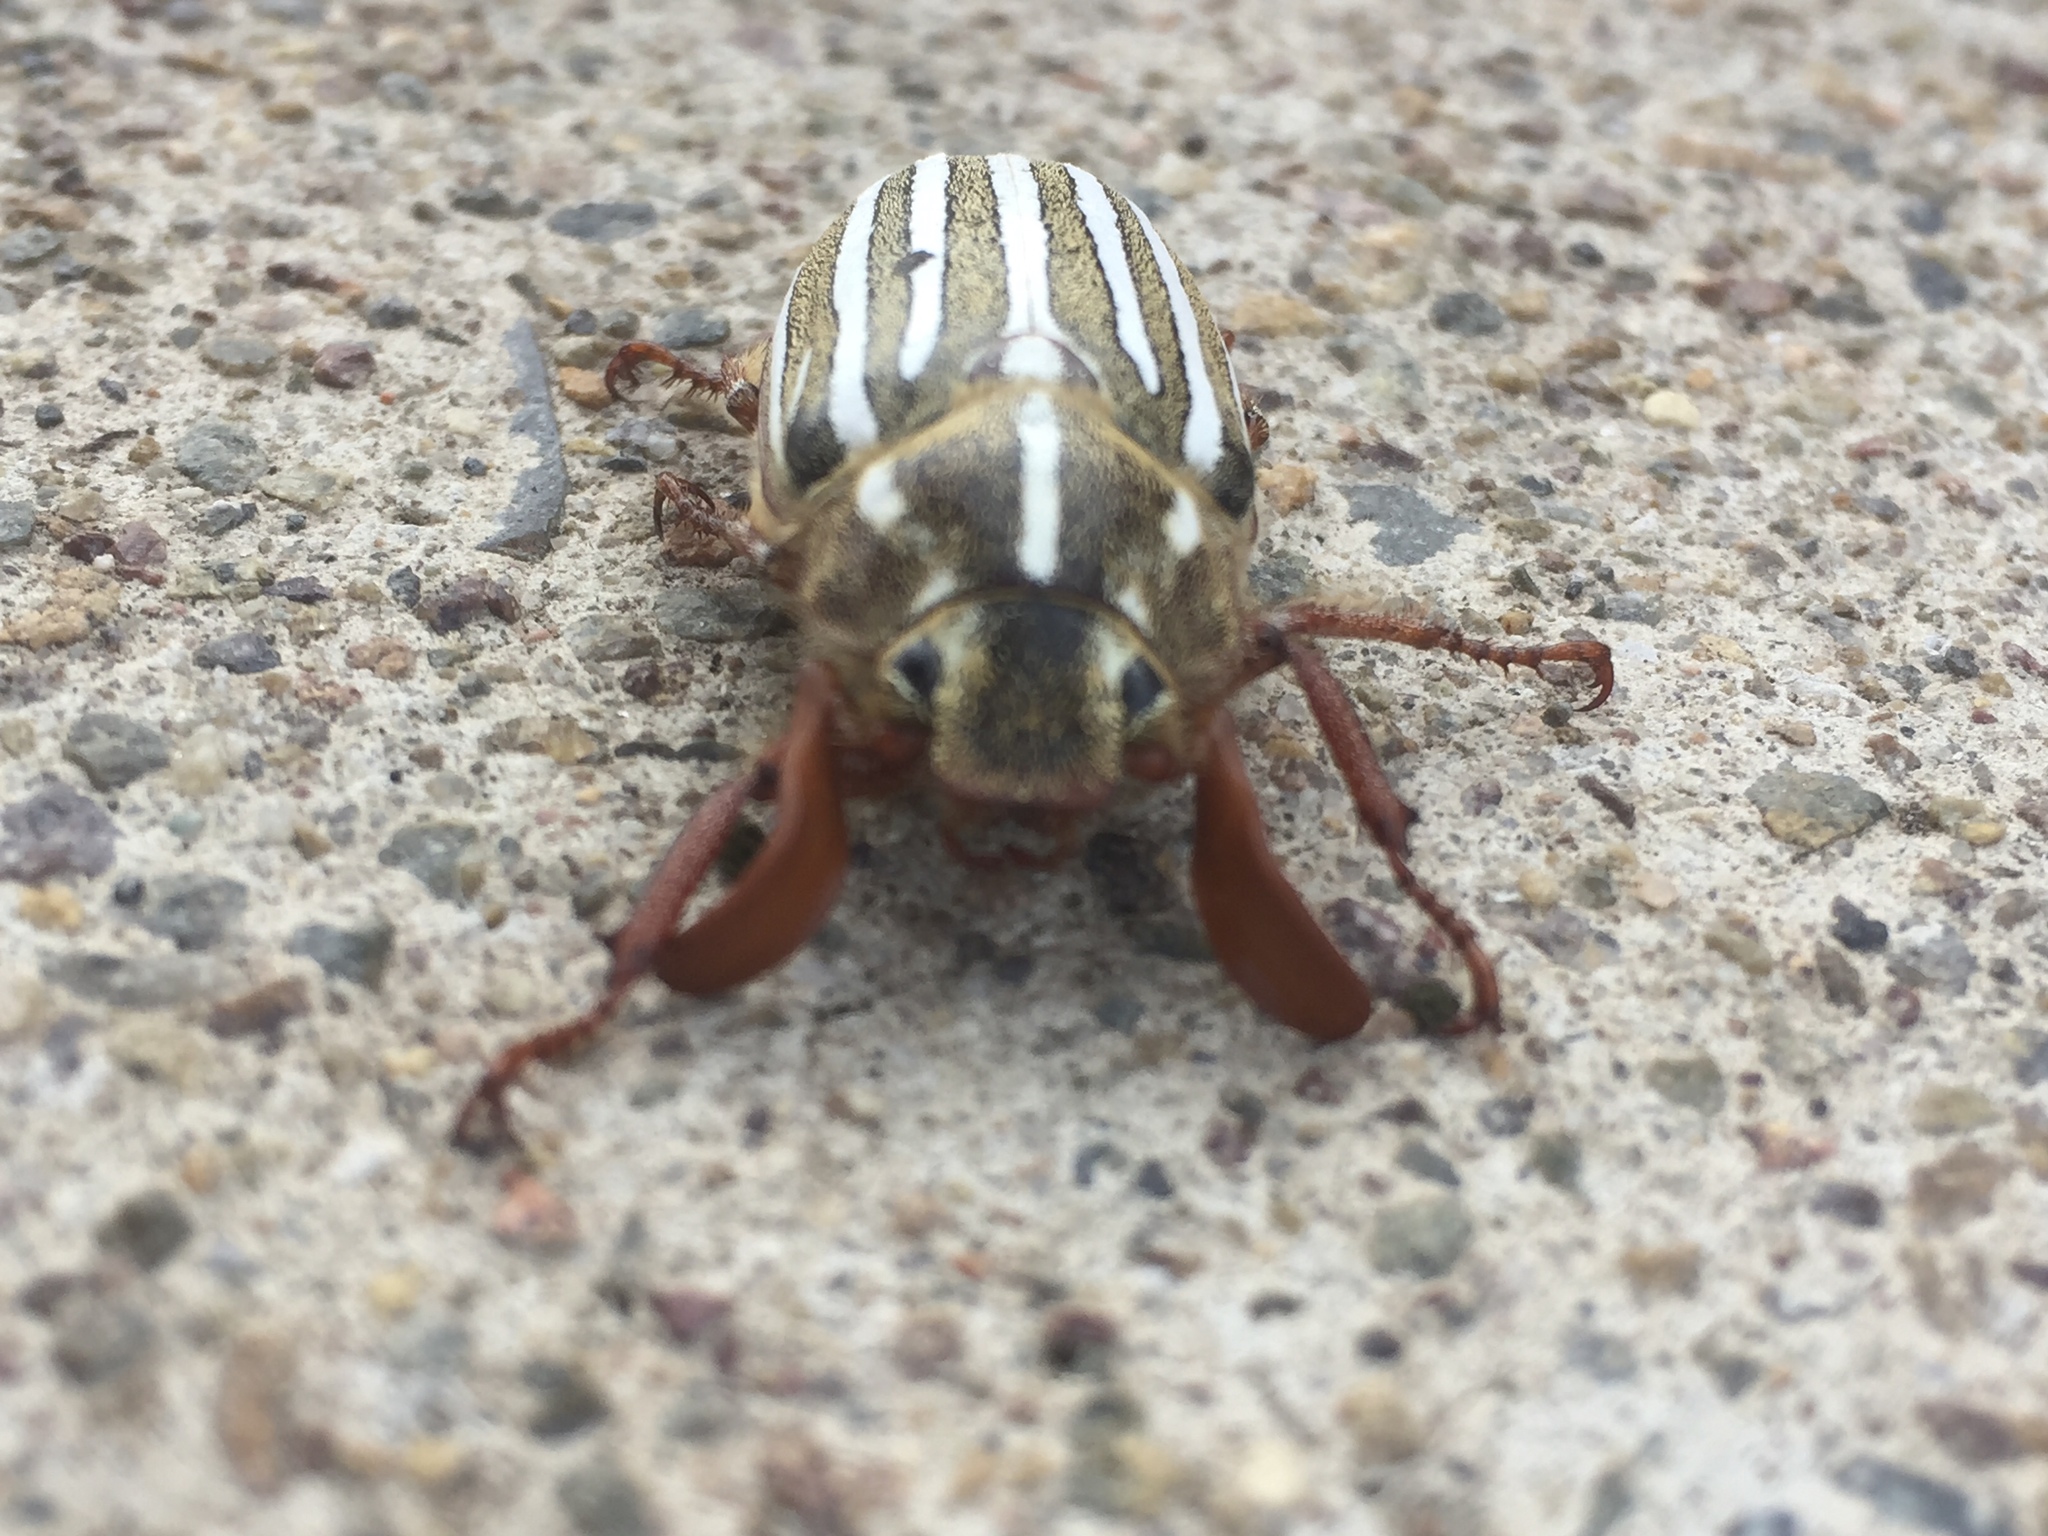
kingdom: Animalia
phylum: Arthropoda
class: Insecta
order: Coleoptera
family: Scarabaeidae
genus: Polyphylla
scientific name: Polyphylla decemlineata
